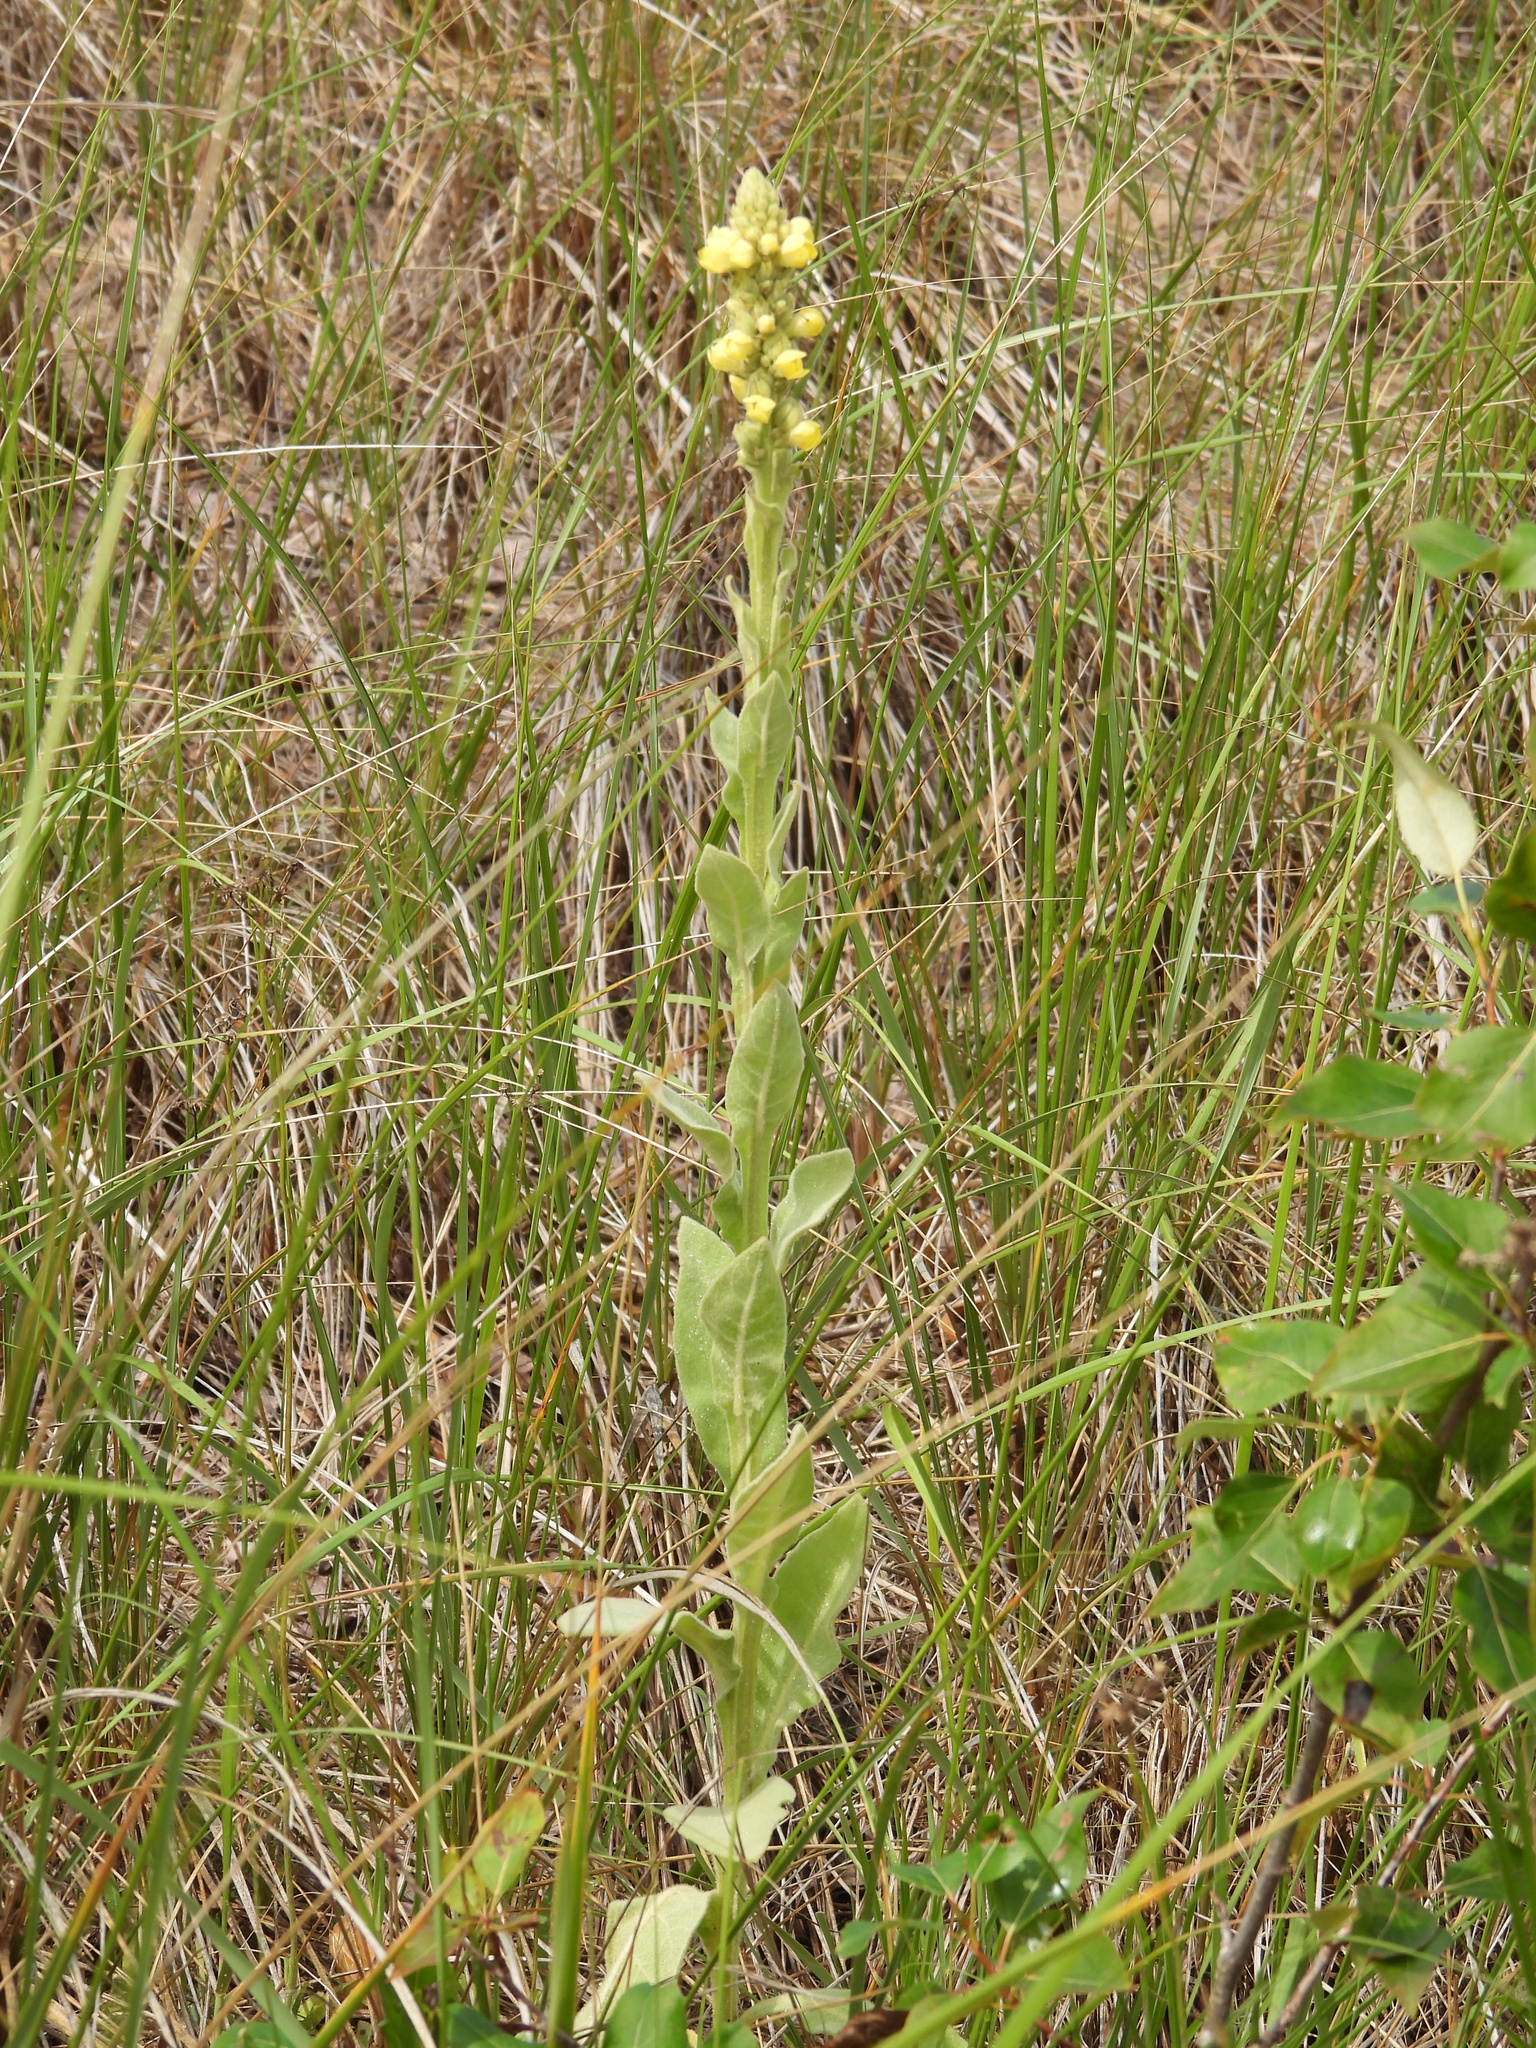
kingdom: Plantae
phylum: Tracheophyta
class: Magnoliopsida
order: Lamiales
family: Scrophulariaceae
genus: Verbascum
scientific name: Verbascum thapsus
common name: Common mullein
